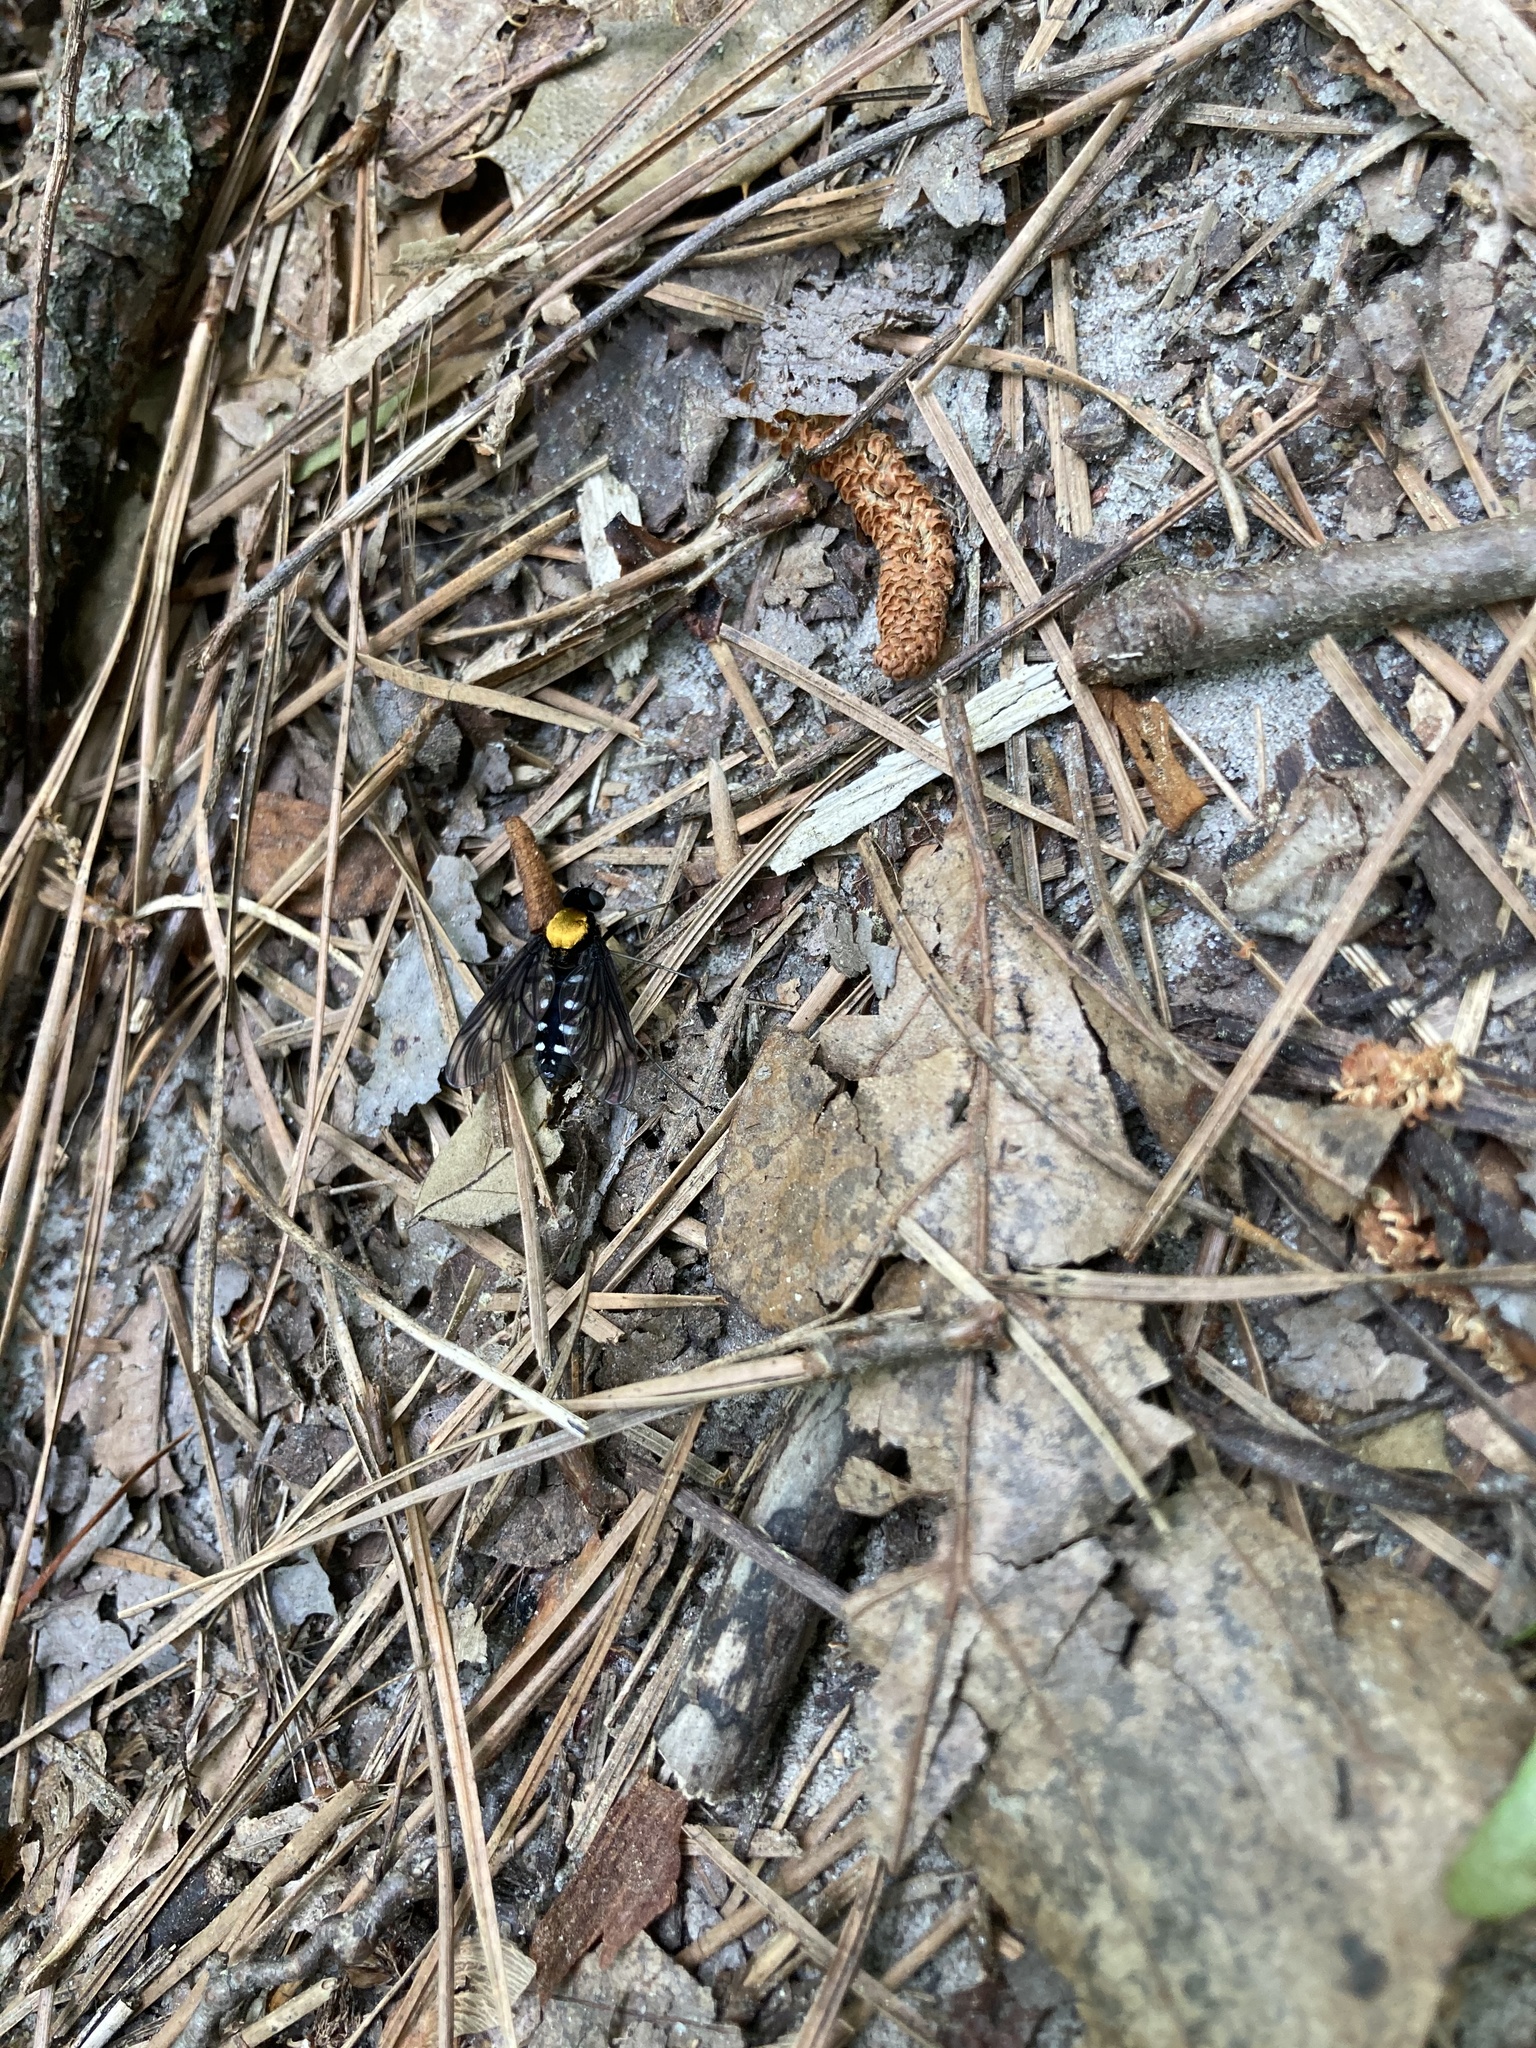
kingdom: Animalia
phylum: Arthropoda
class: Insecta
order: Diptera
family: Rhagionidae
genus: Chrysopilus
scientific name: Chrysopilus thoracicus
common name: Golden-backed snipe fly
